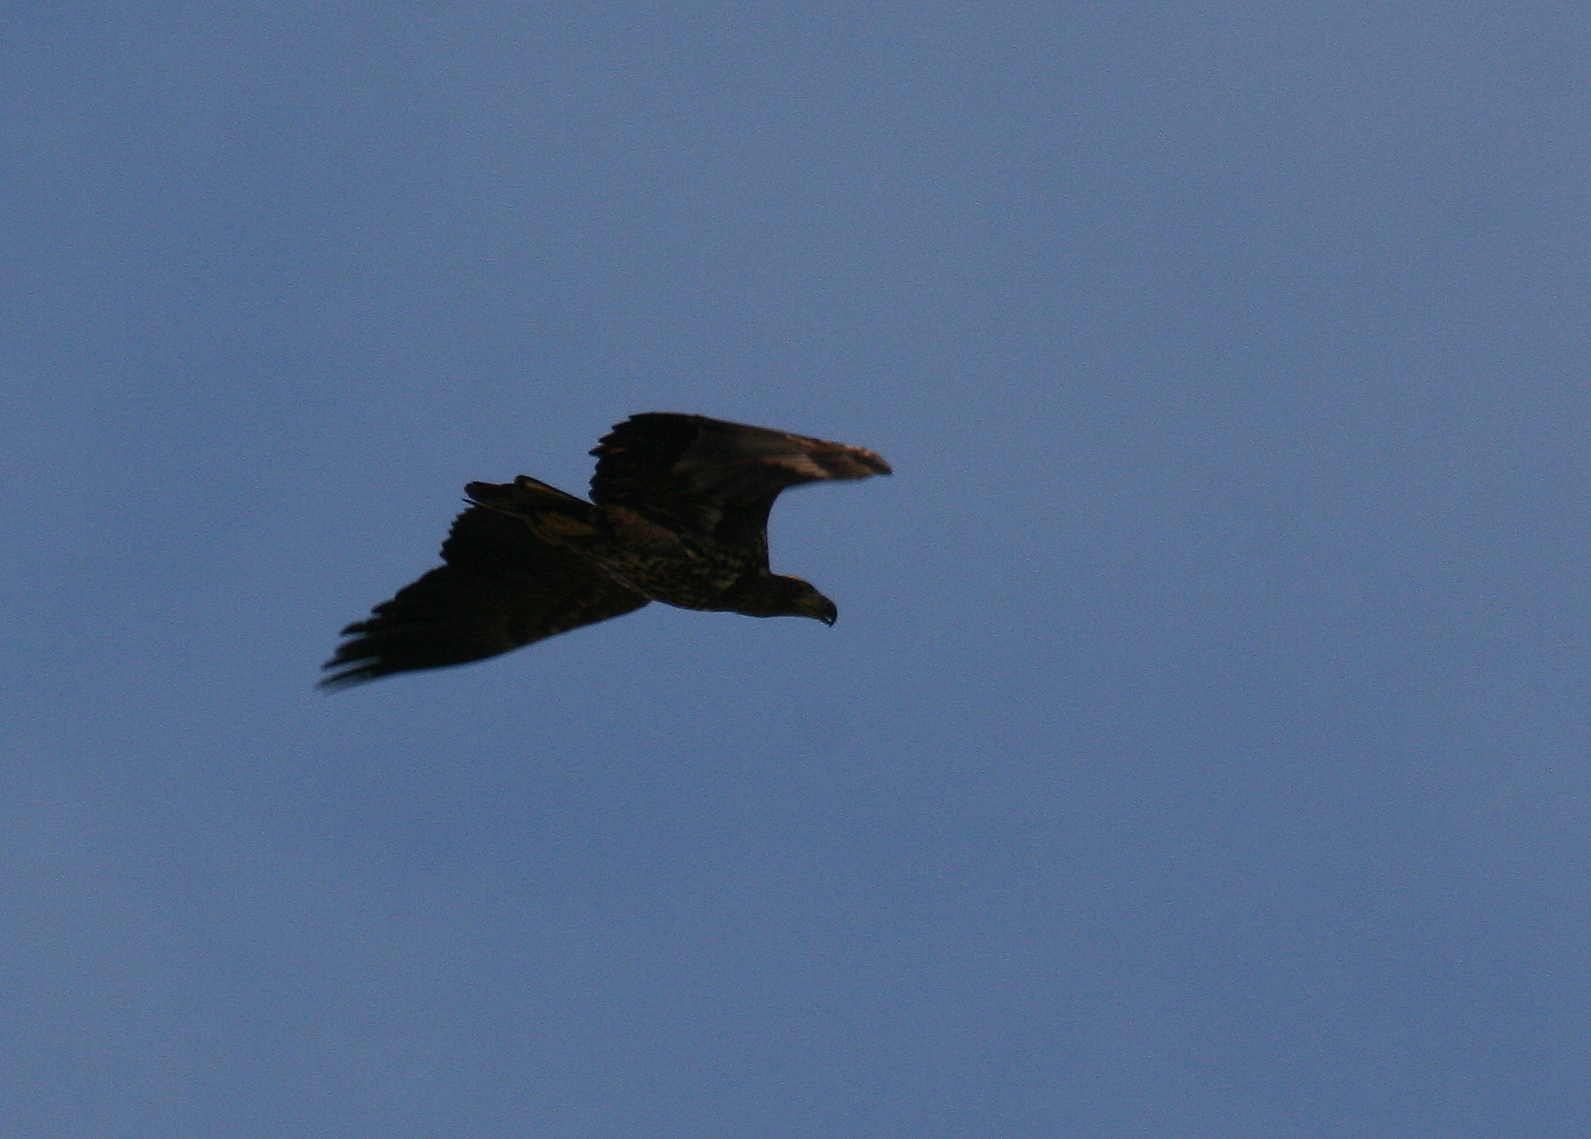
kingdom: Animalia
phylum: Chordata
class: Aves
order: Accipitriformes
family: Accipitridae
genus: Haliaeetus
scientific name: Haliaeetus albicilla
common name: White-tailed eagle
